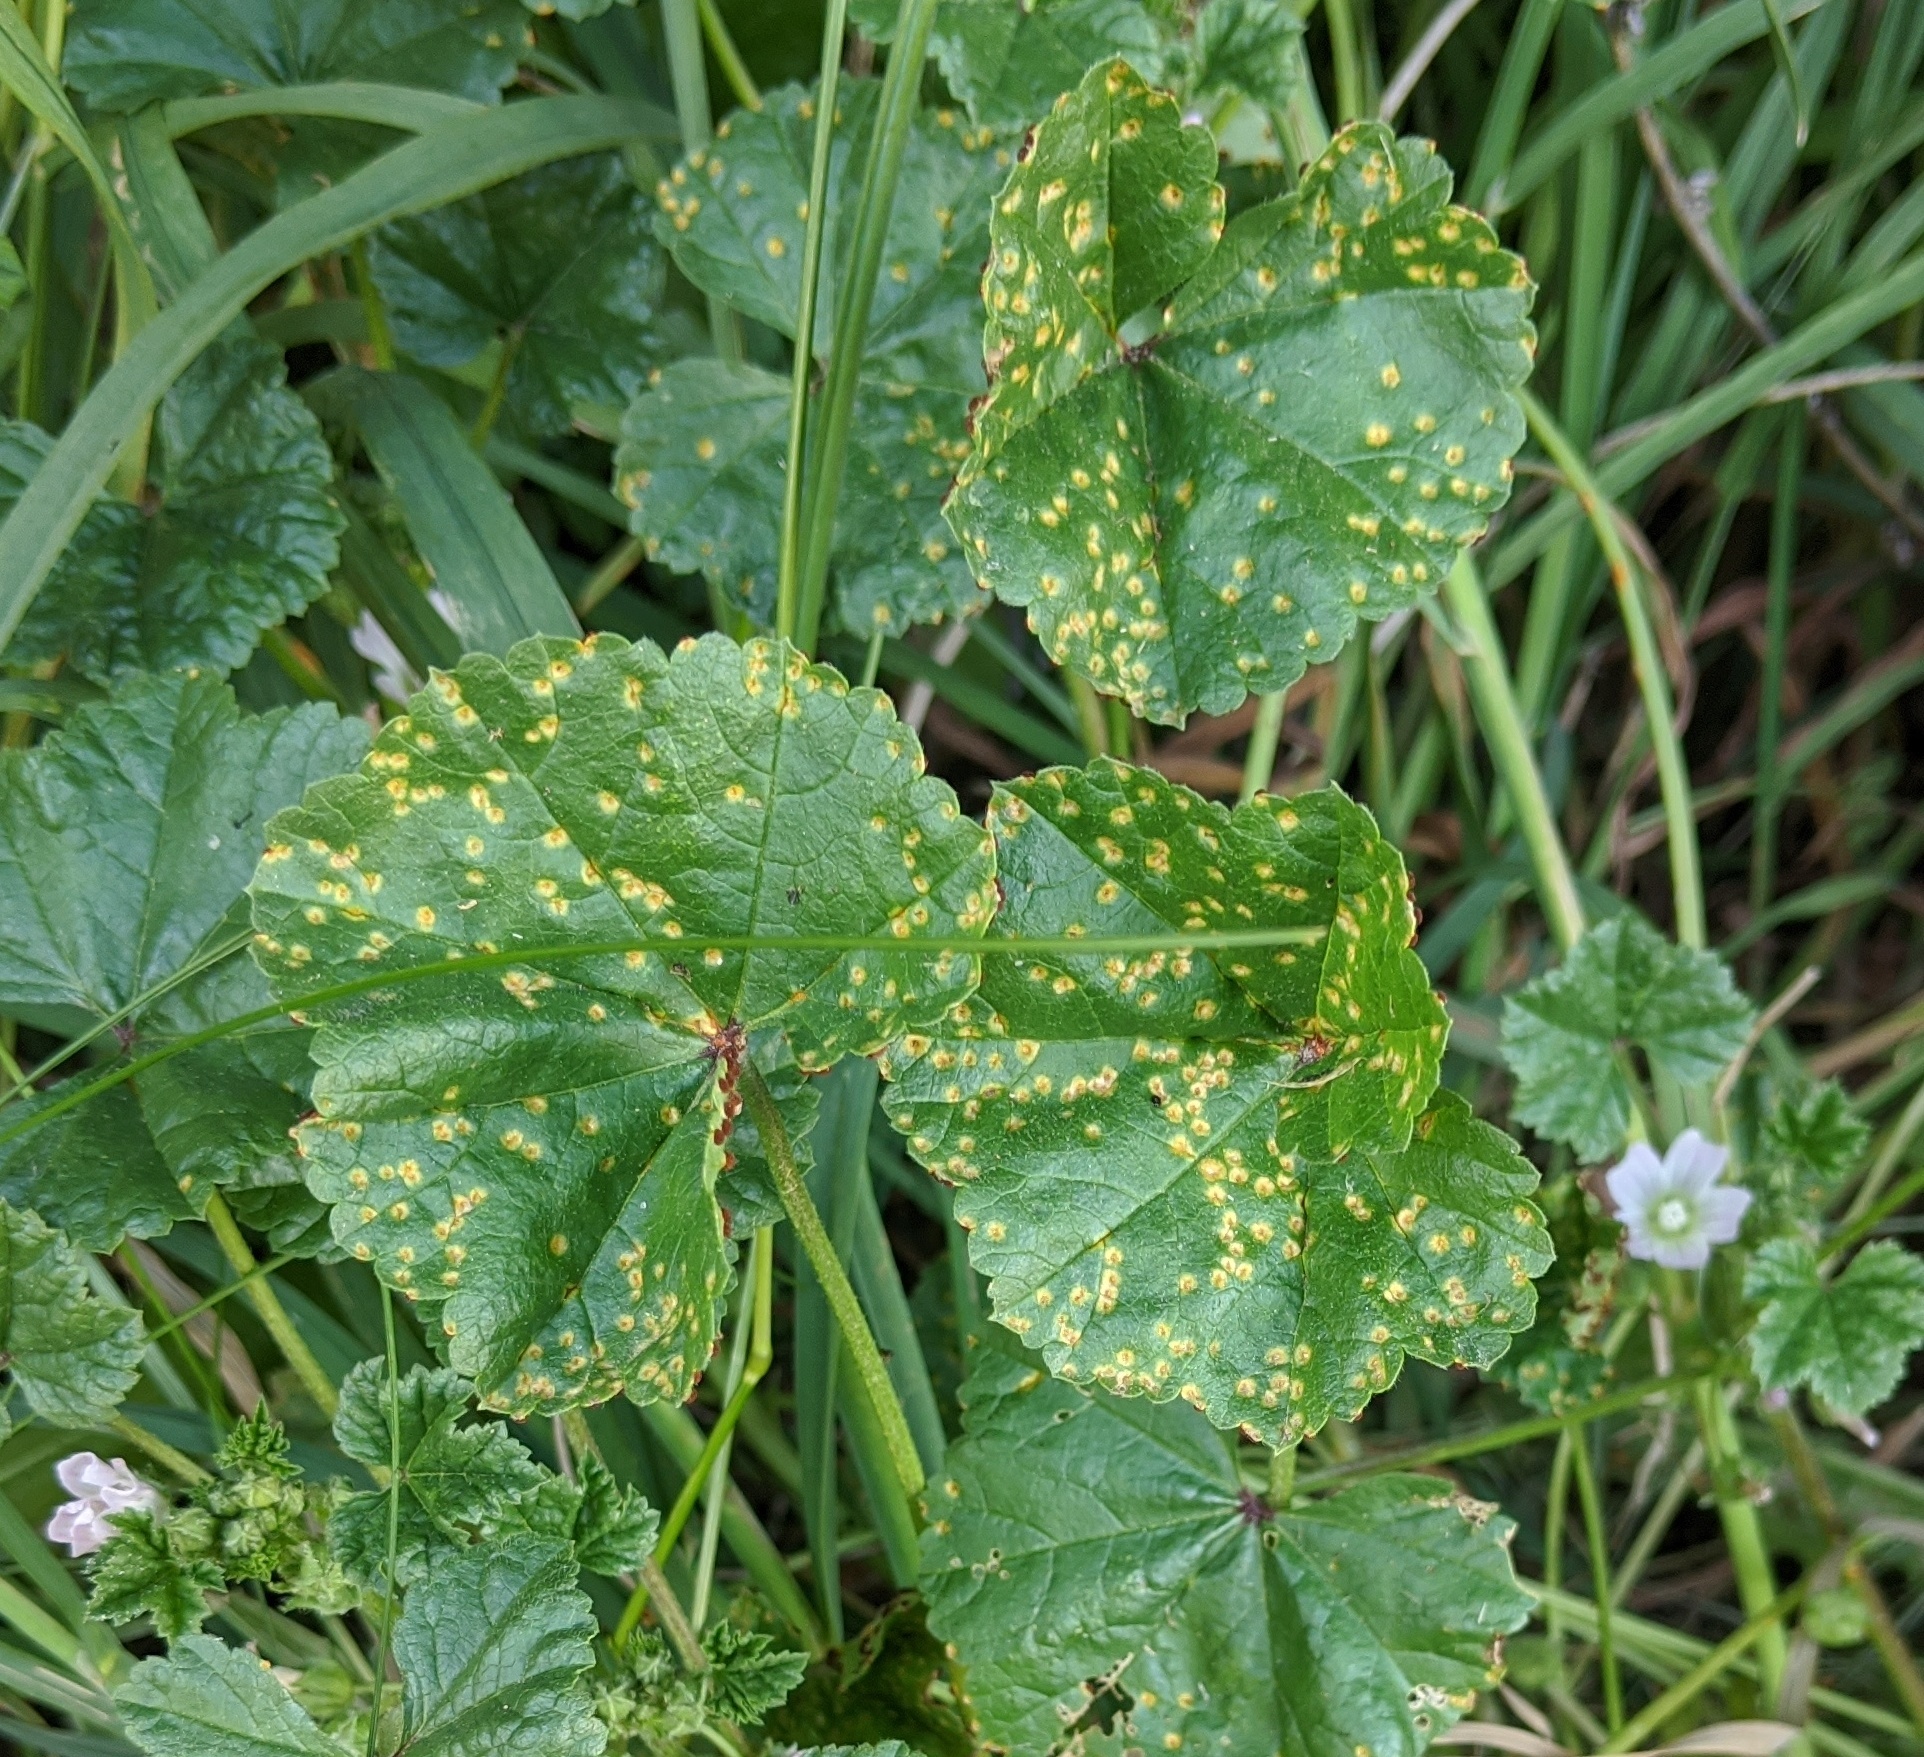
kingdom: Plantae
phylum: Tracheophyta
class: Magnoliopsida
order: Malvales
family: Malvaceae
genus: Malva
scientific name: Malva neglecta
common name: Common mallow
